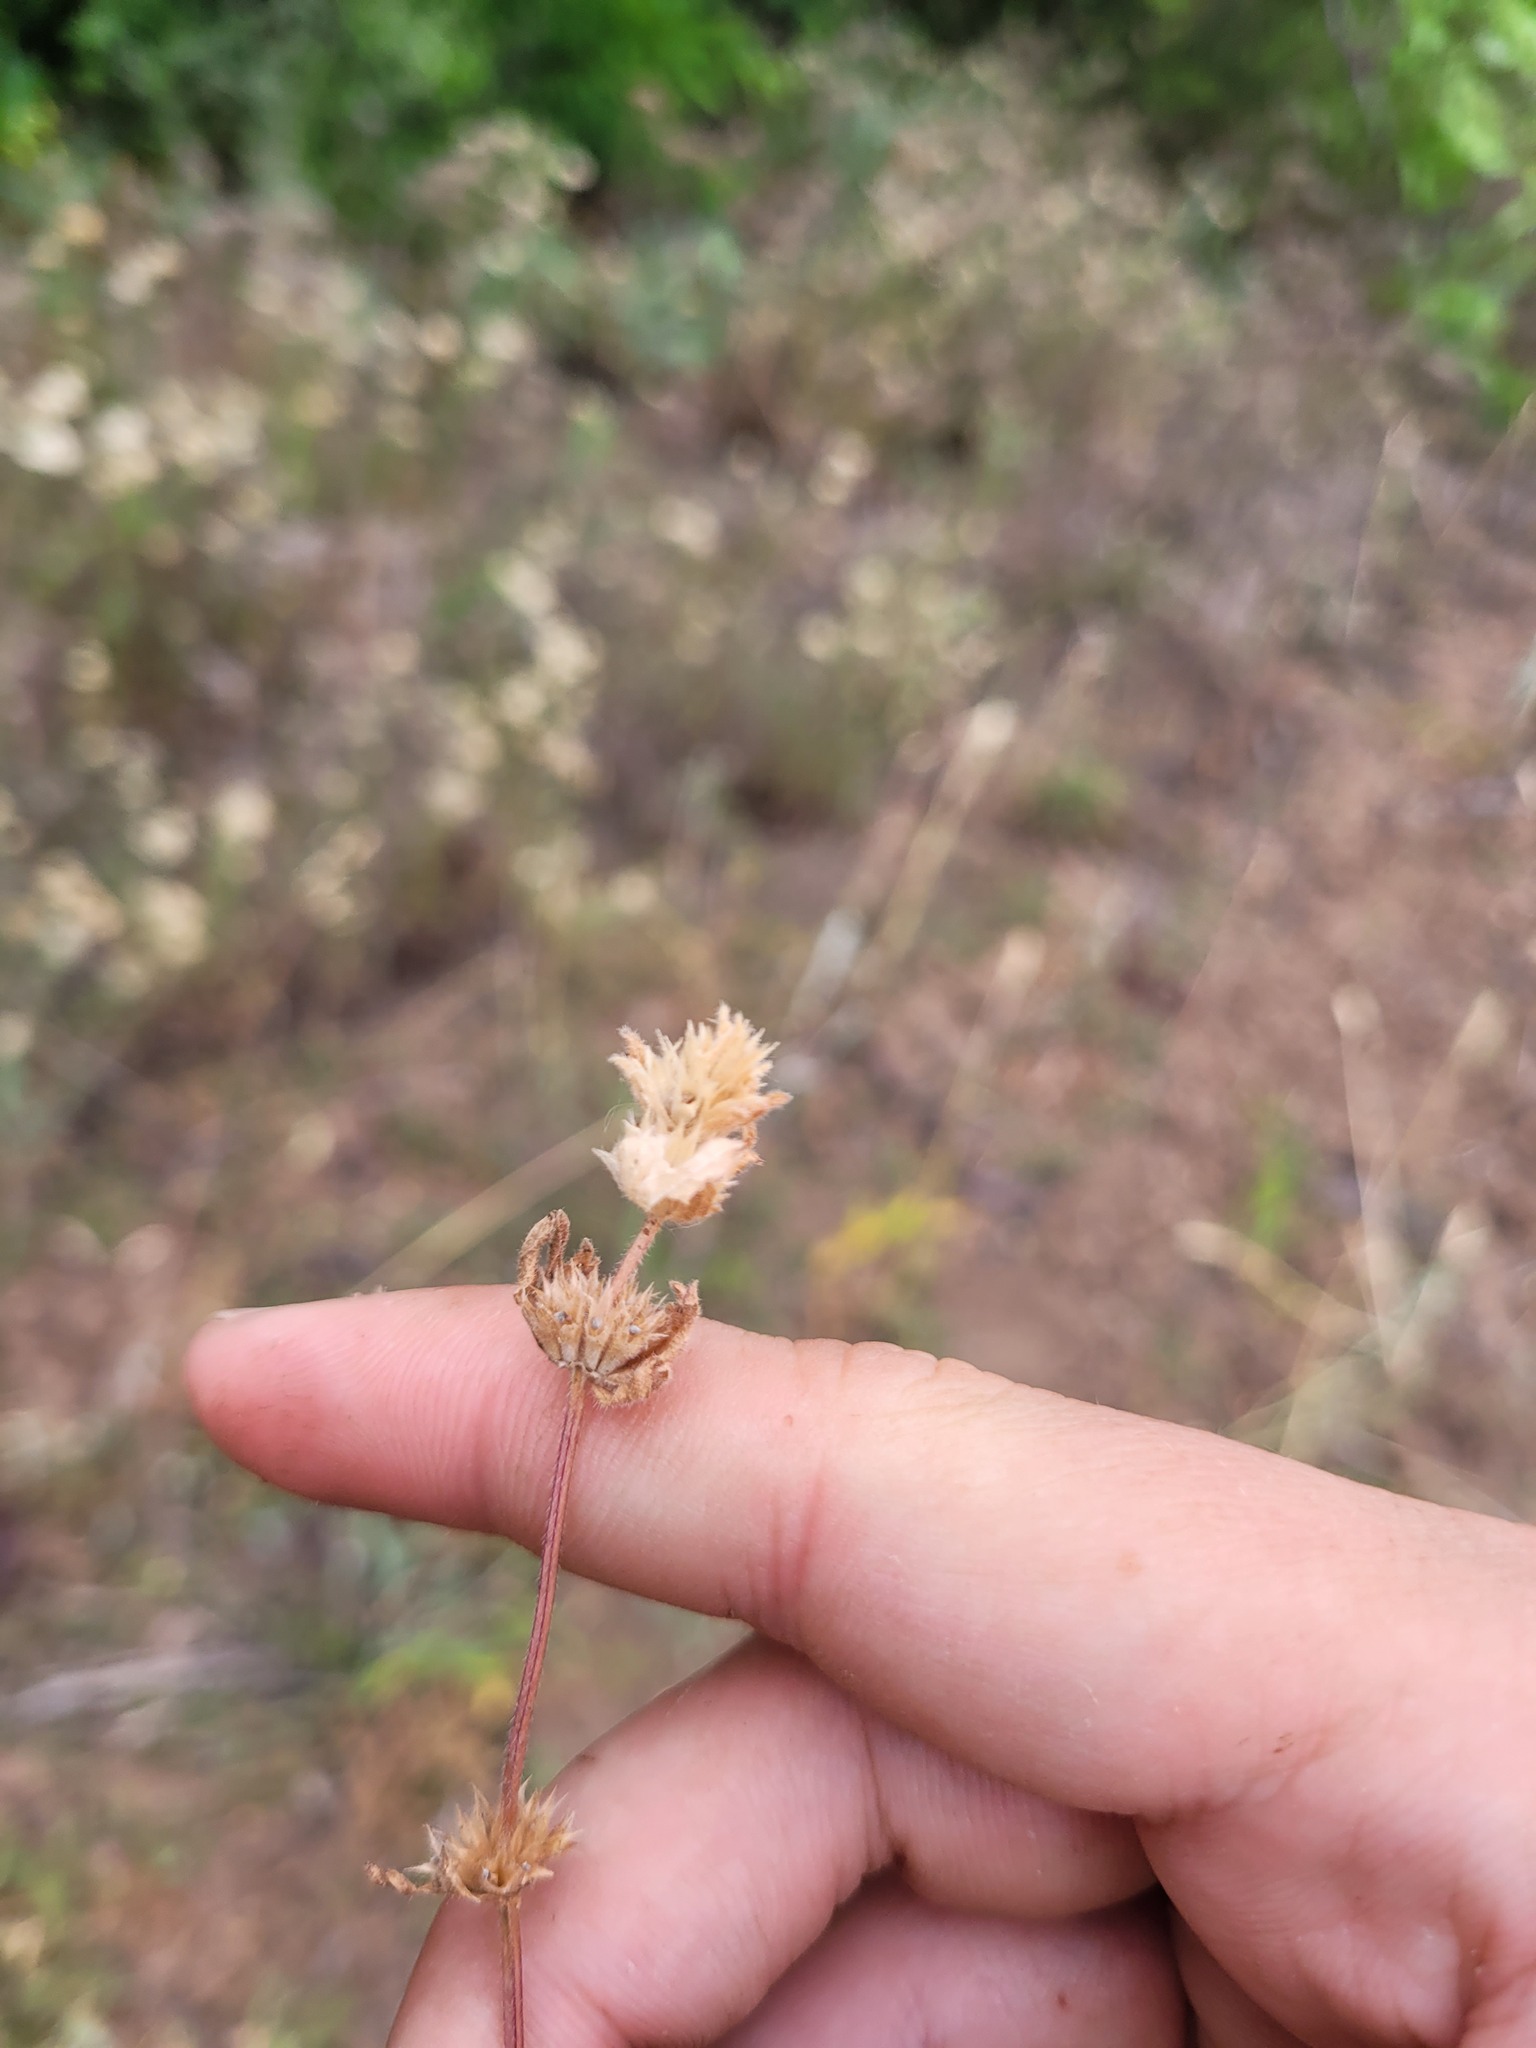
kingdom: Plantae
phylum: Tracheophyta
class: Magnoliopsida
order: Lamiales
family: Lamiaceae
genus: Lamium
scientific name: Lamium amplexicaule
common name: Henbit dead-nettle
